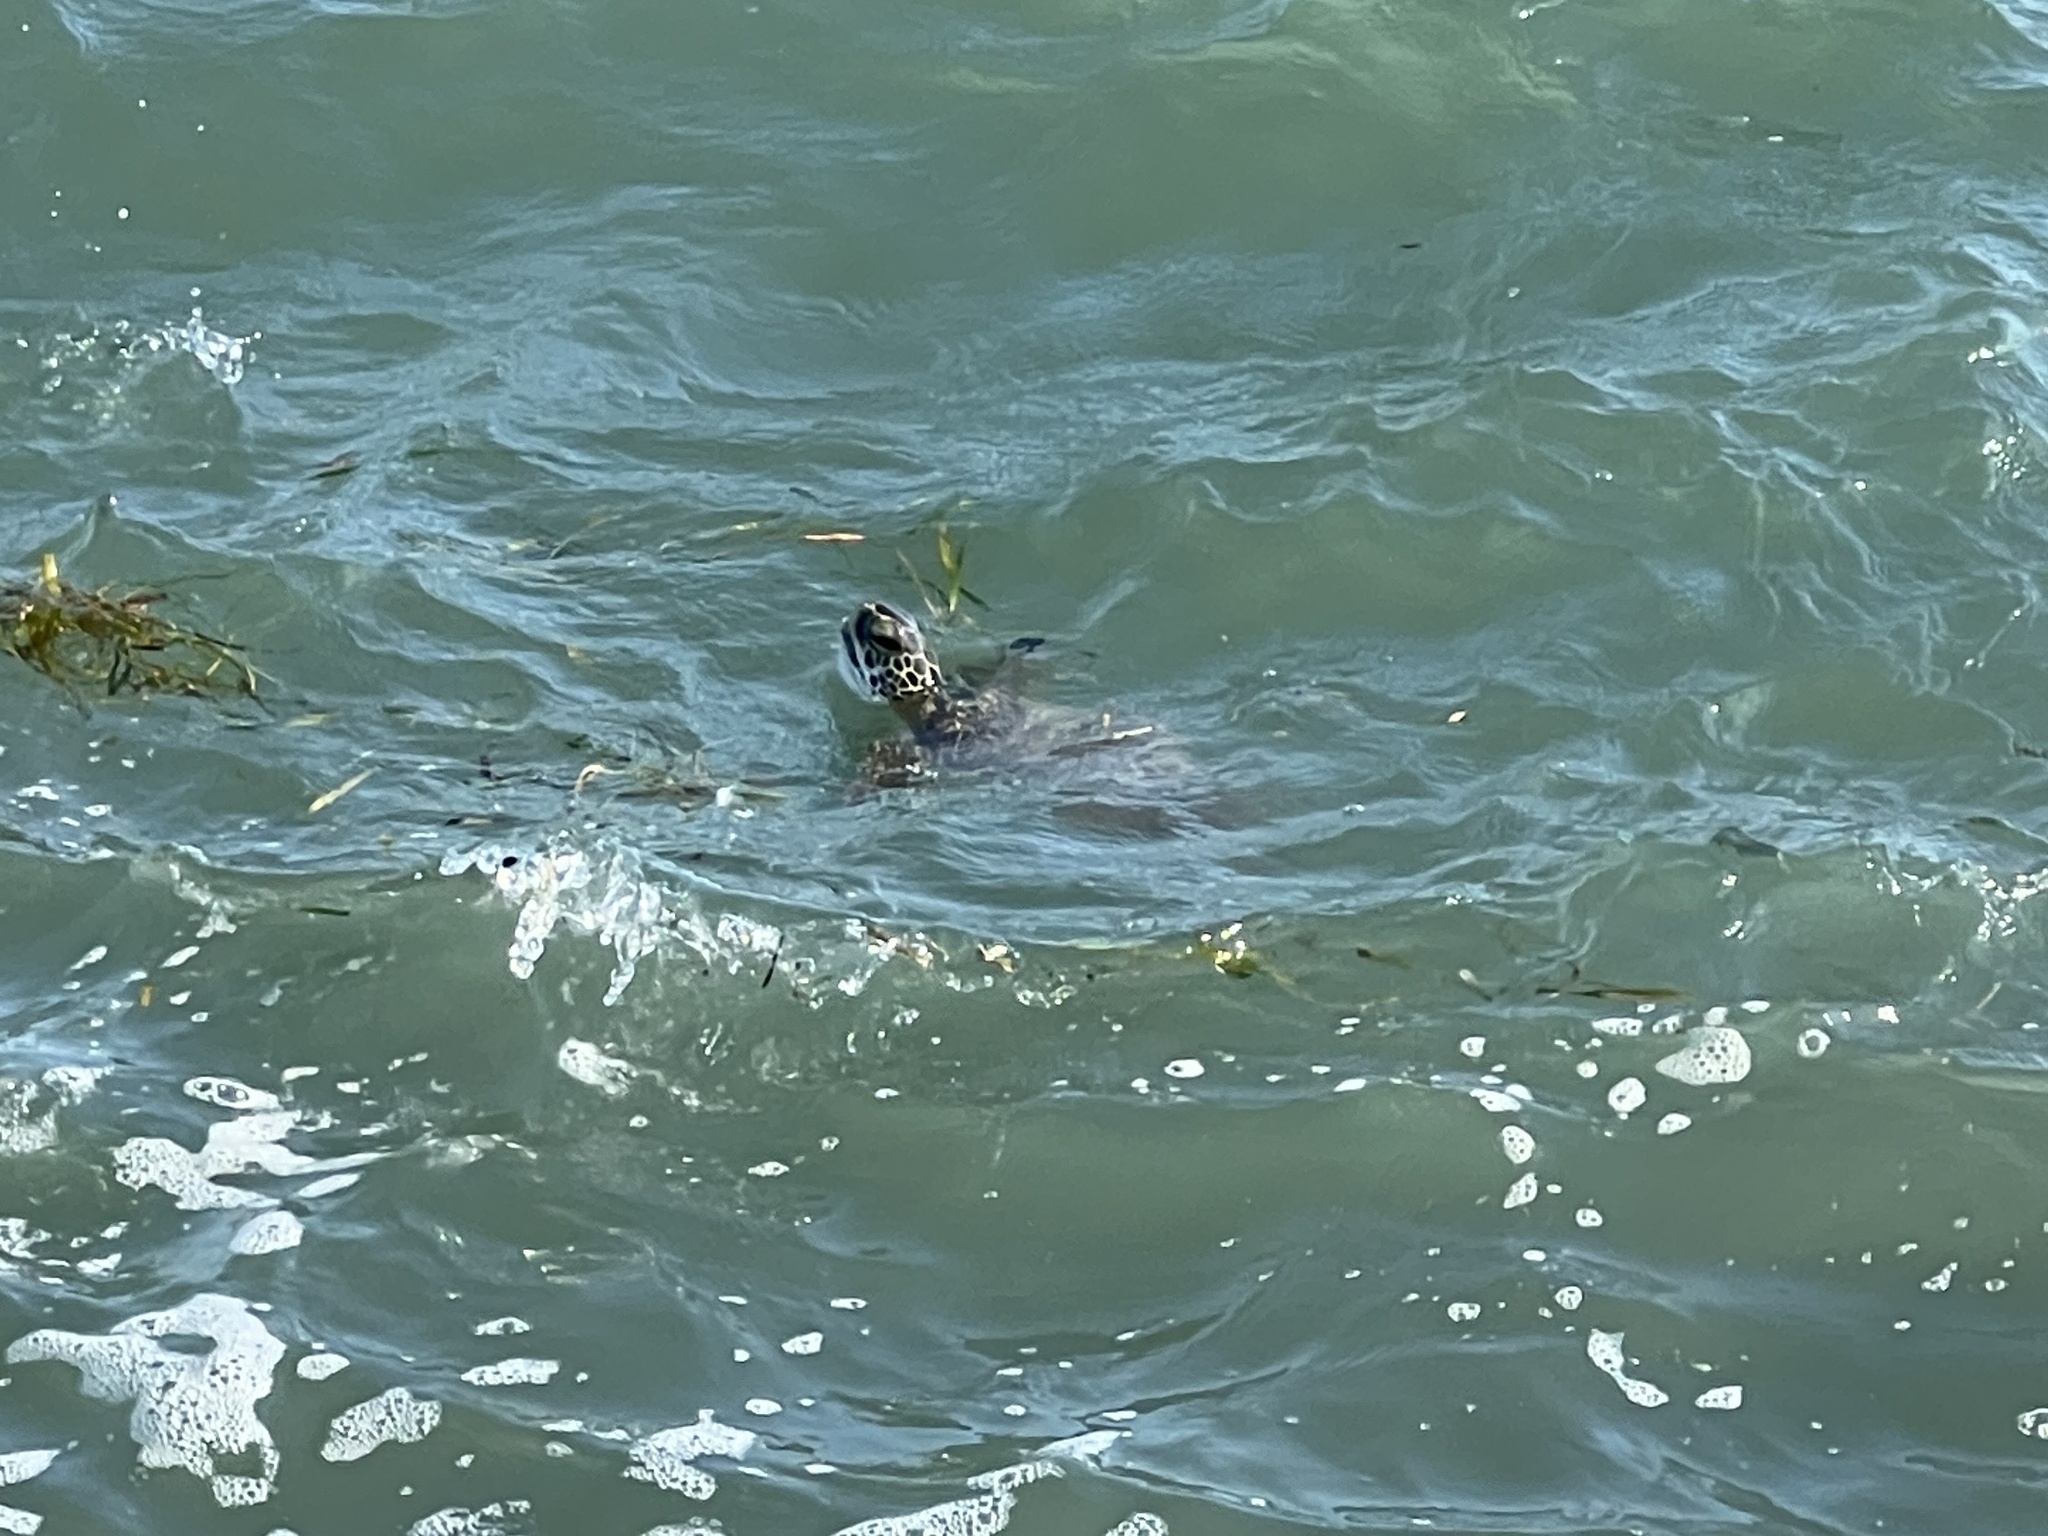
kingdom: Animalia
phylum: Chordata
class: Testudines
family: Cheloniidae
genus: Chelonia
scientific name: Chelonia mydas
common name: Green turtle
